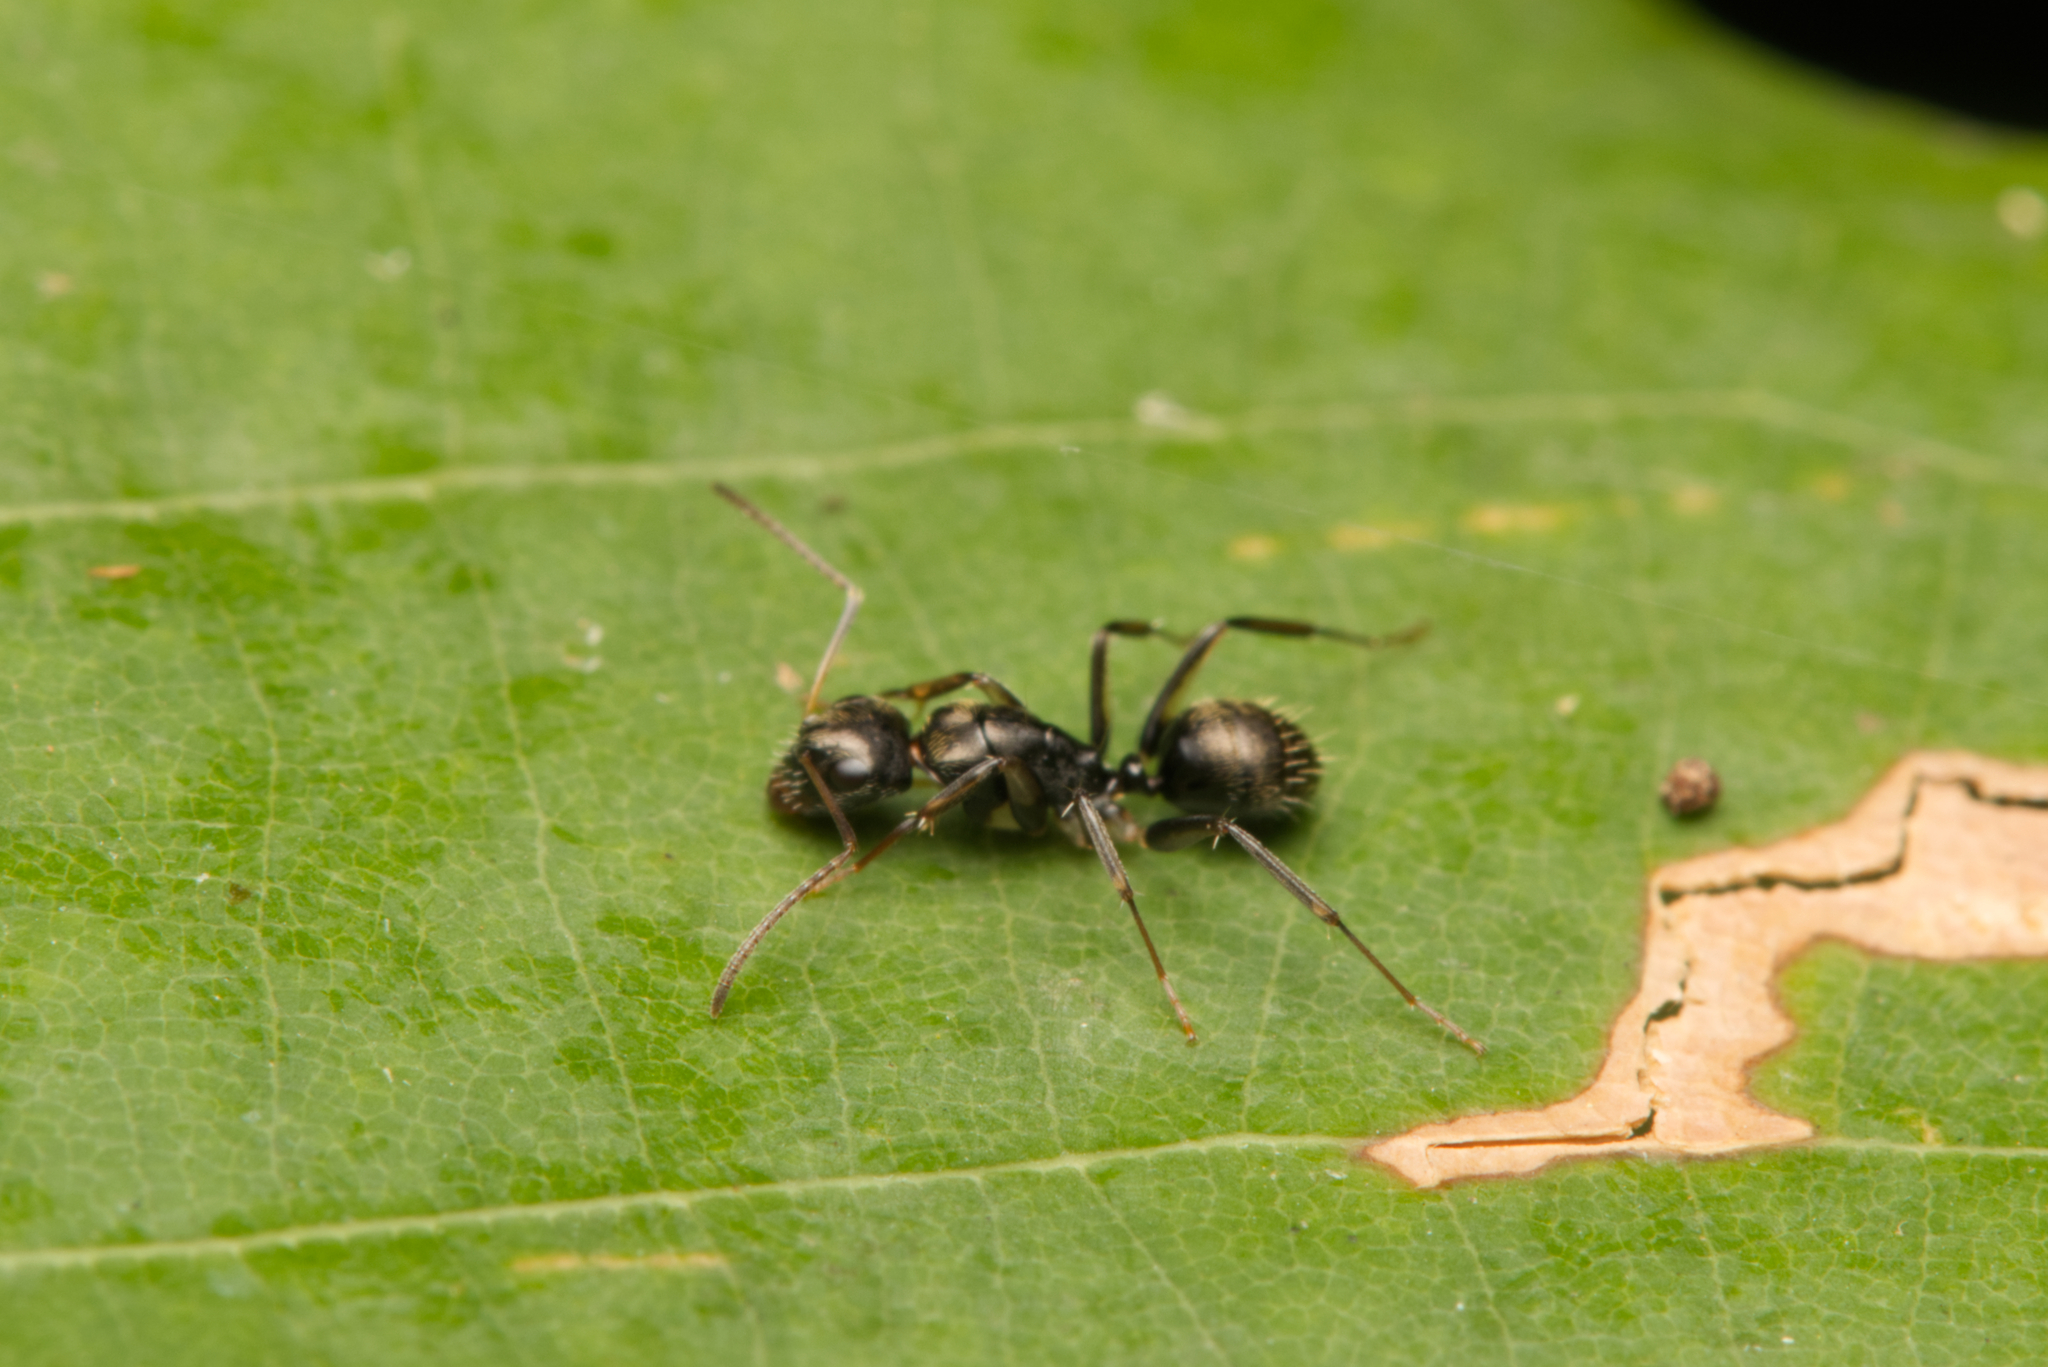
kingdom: Animalia
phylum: Arthropoda
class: Insecta
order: Hymenoptera
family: Formicidae
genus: Camponotus
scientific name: Camponotus froggatti
